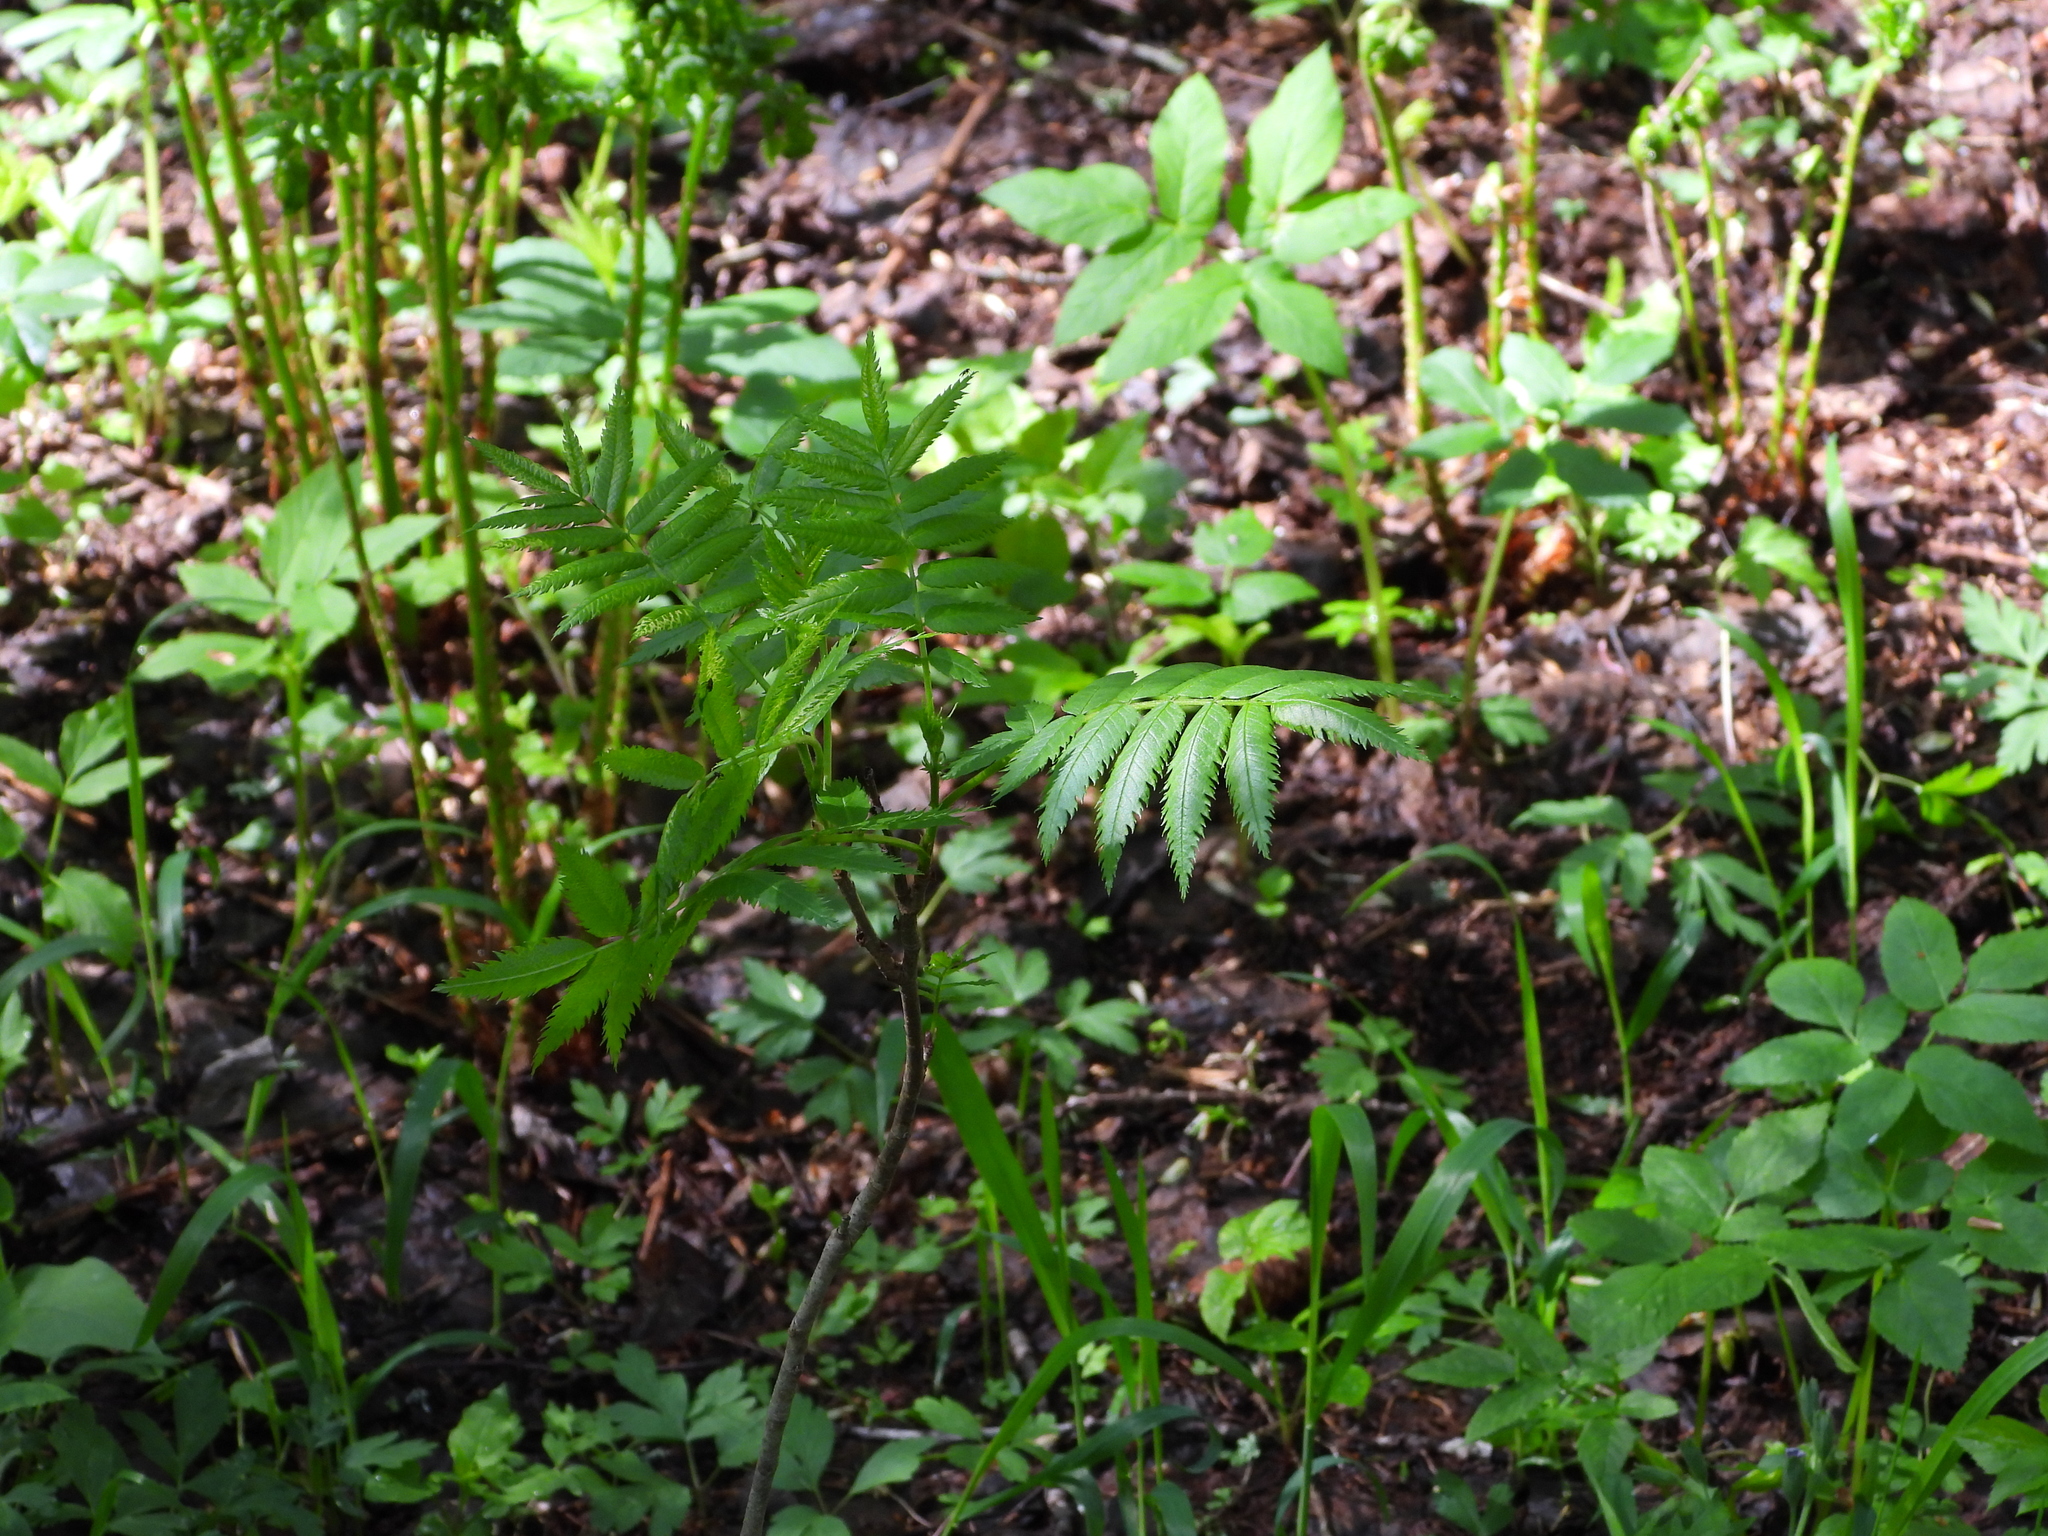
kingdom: Plantae
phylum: Tracheophyta
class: Magnoliopsida
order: Rosales
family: Rosaceae
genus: Sorbus
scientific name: Sorbus aucuparia
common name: Rowan
